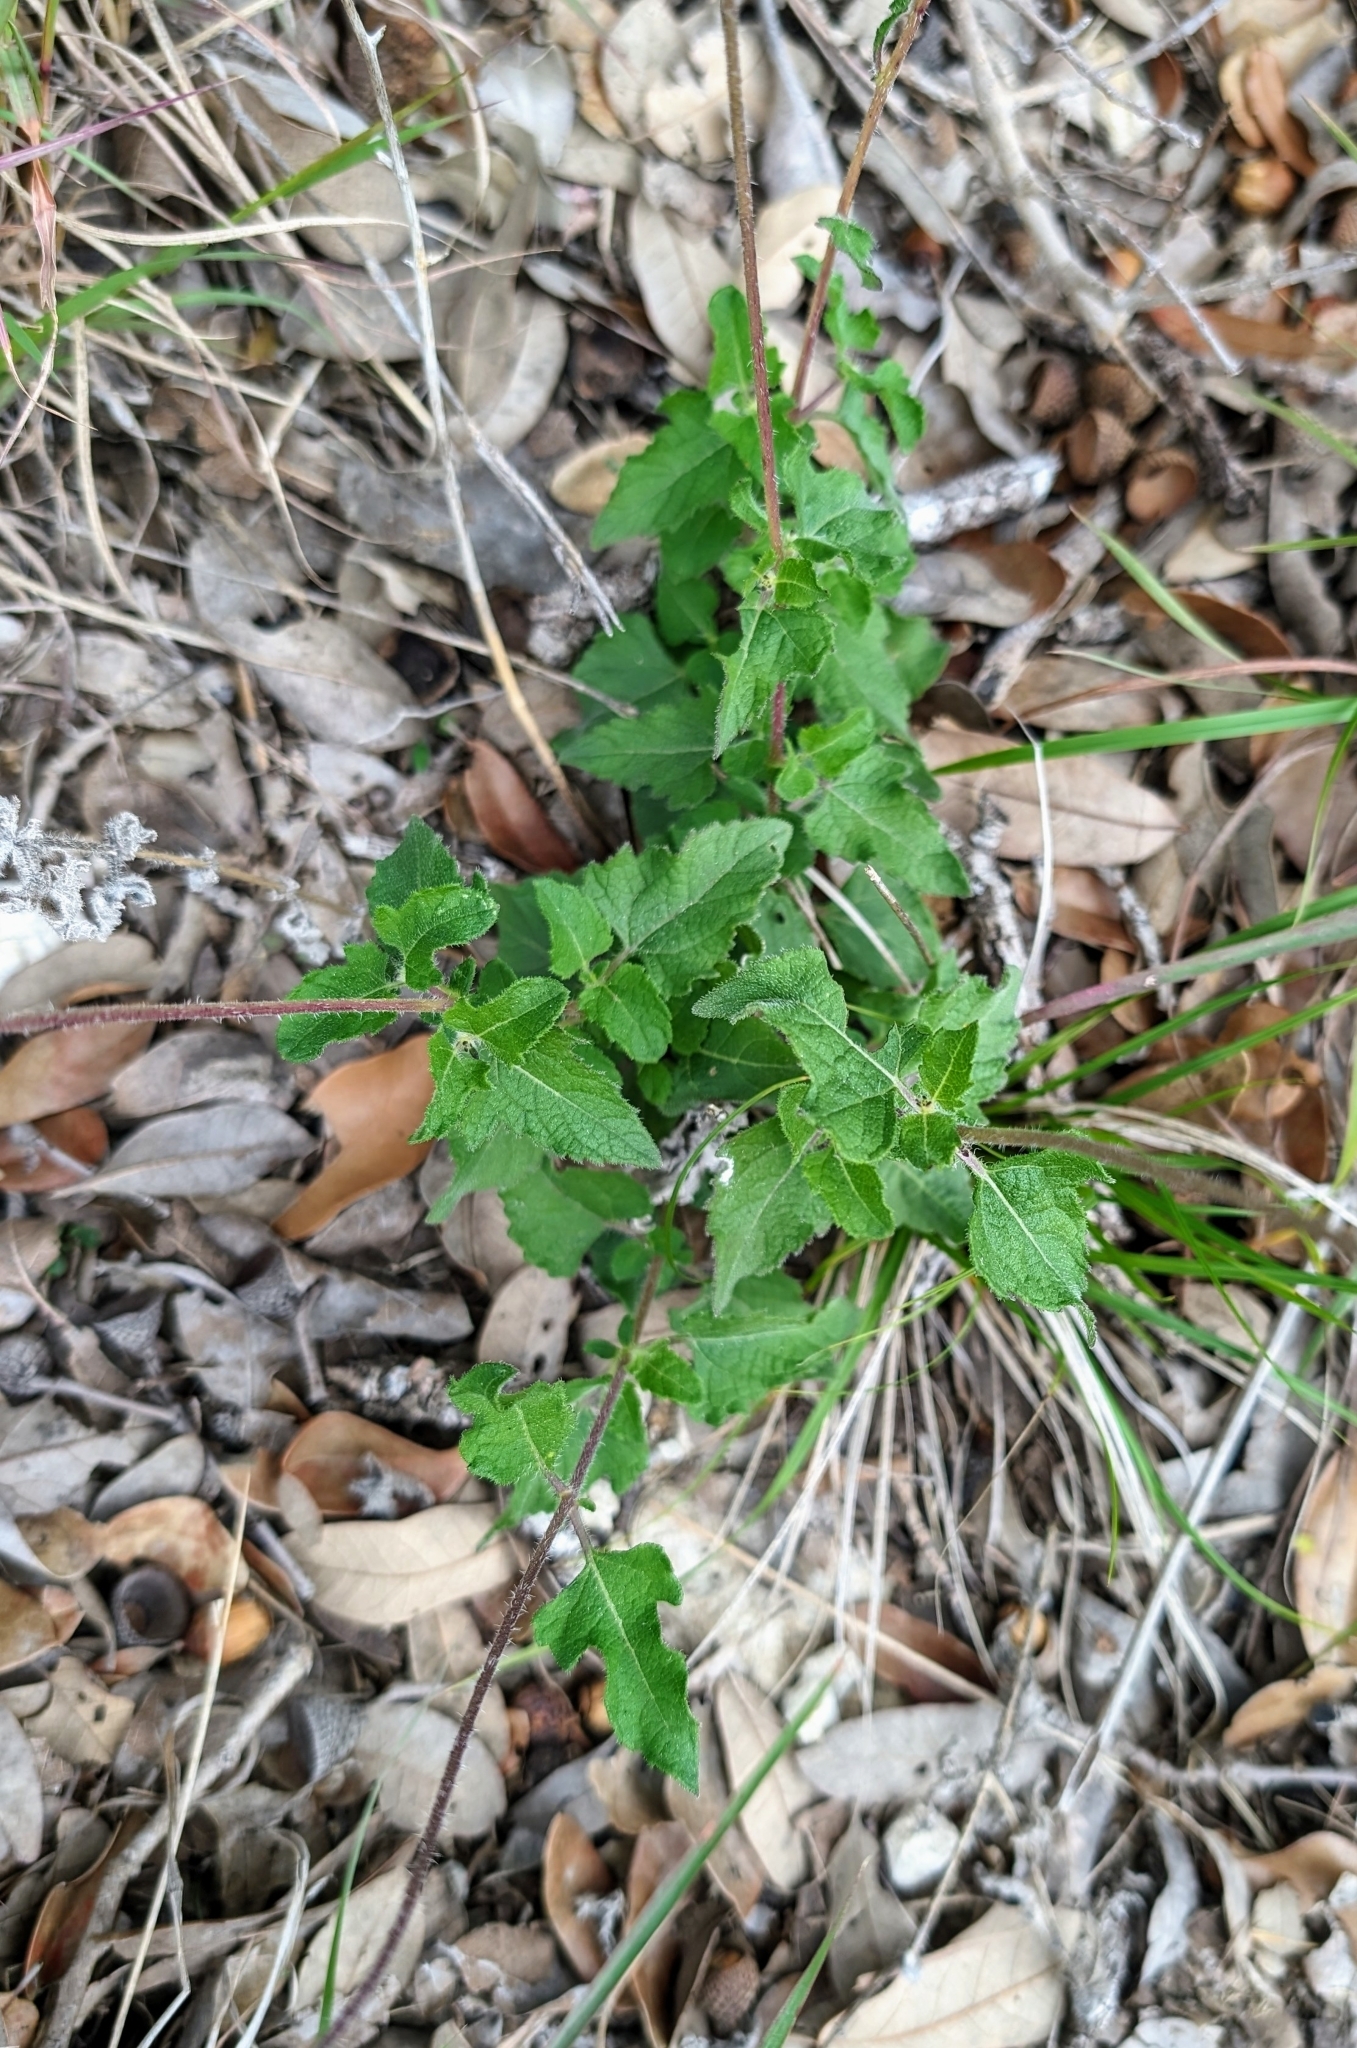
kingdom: Plantae
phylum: Tracheophyta
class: Magnoliopsida
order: Asterales
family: Asteraceae
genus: Simsia
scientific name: Simsia calva
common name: Awnless bush-sunflower
